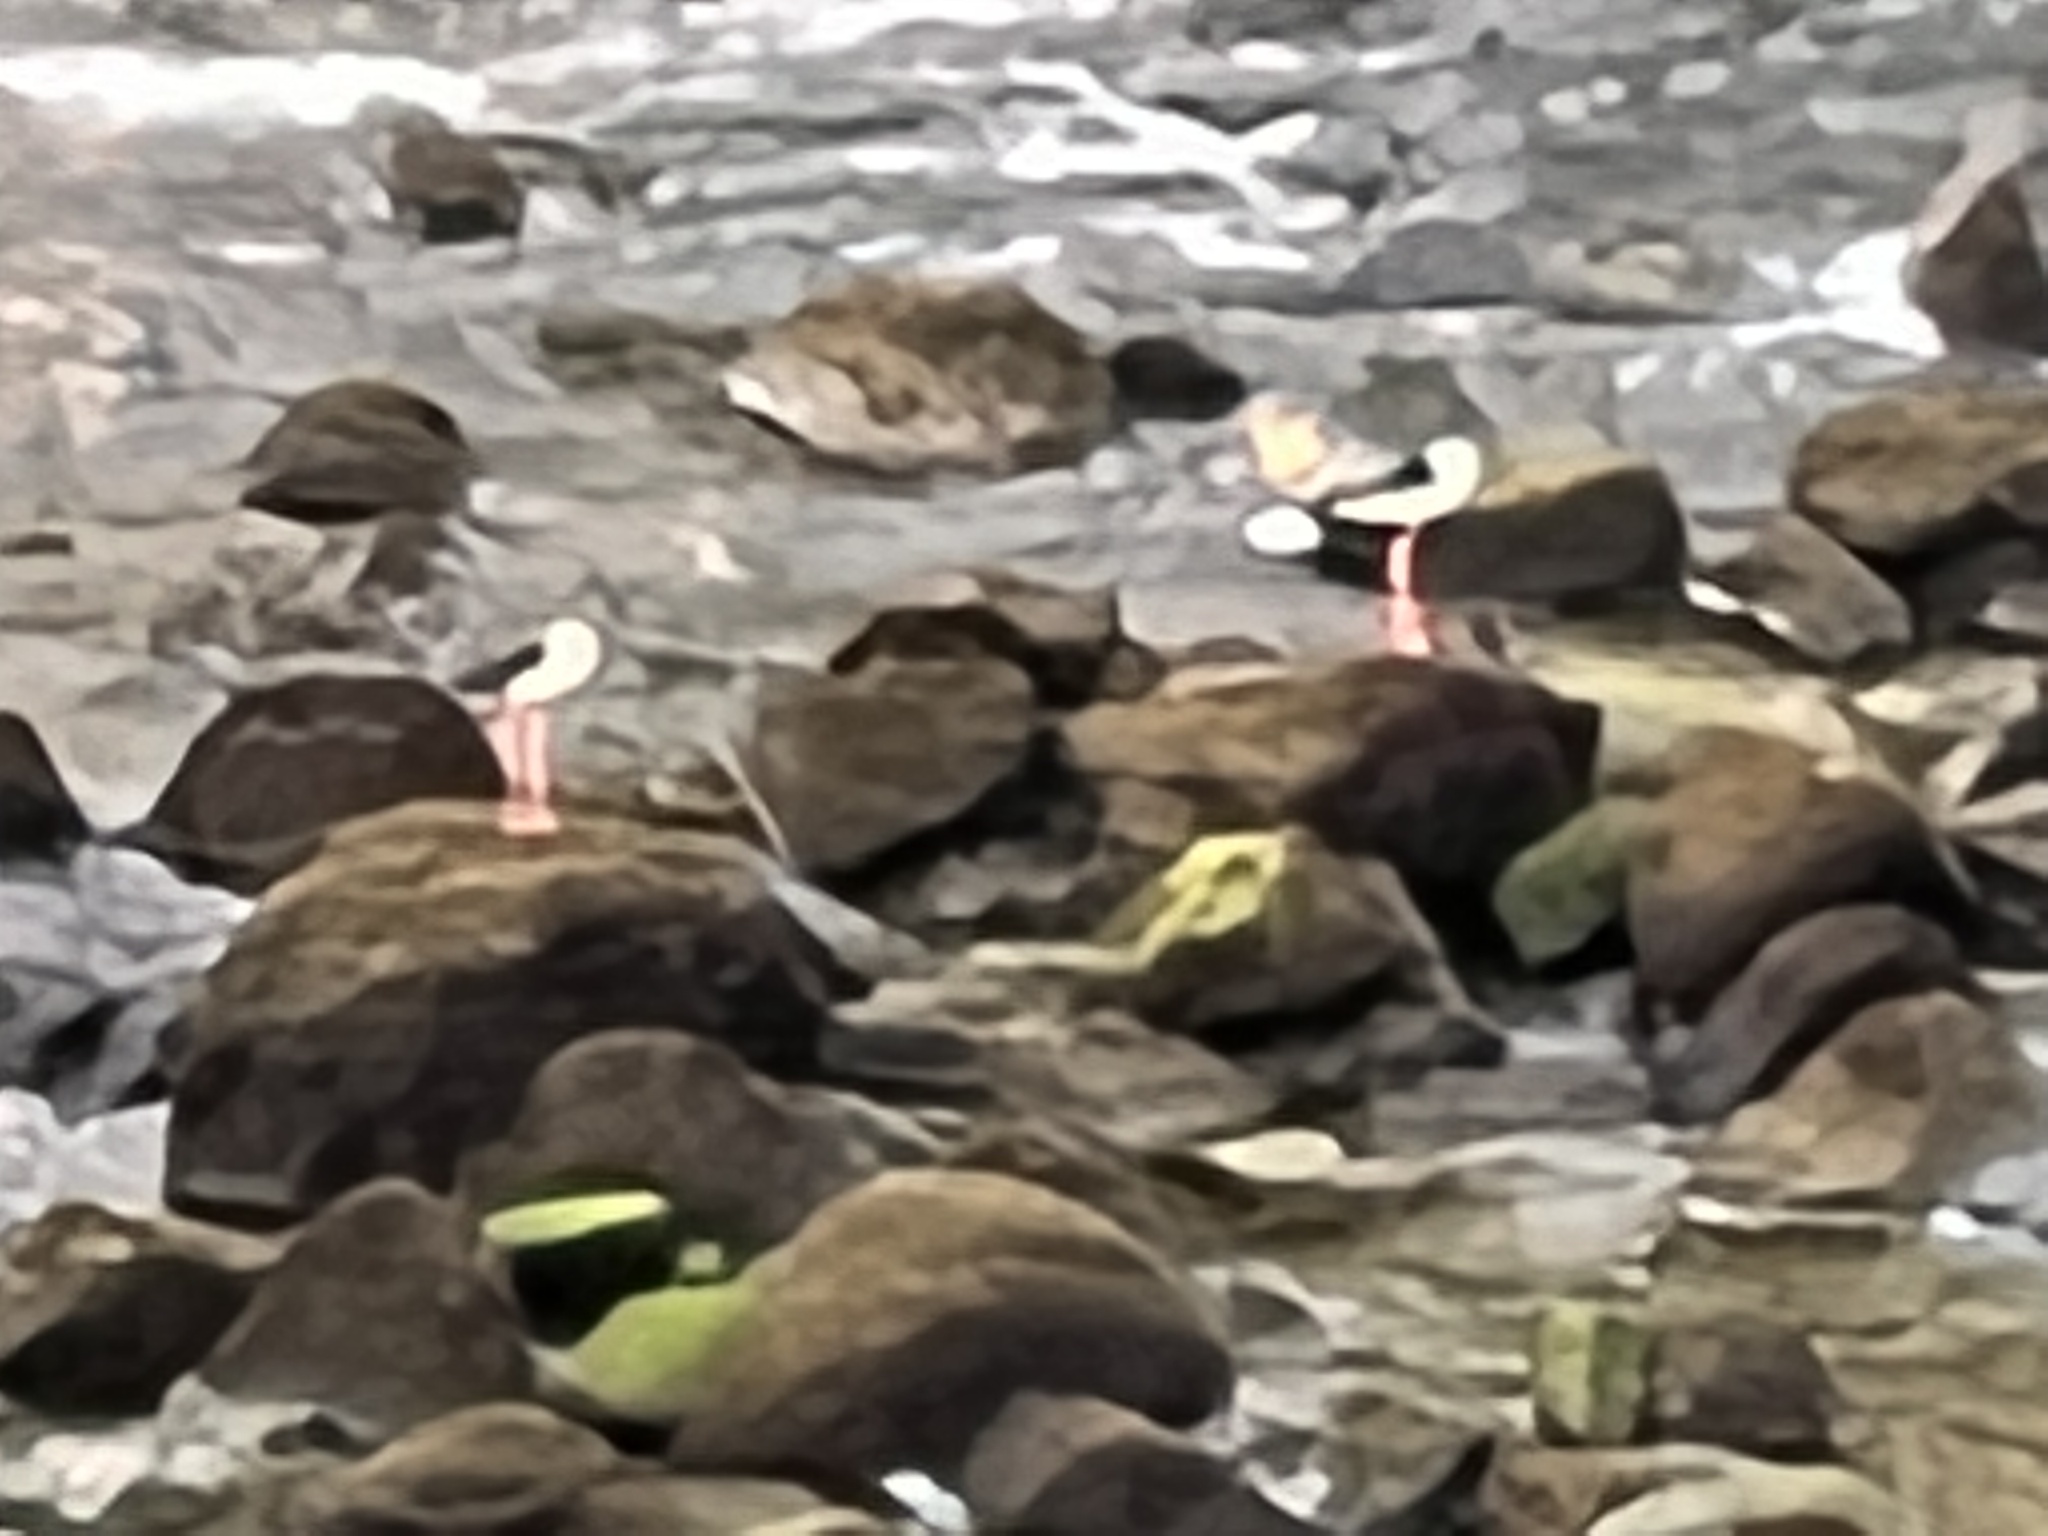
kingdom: Animalia
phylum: Chordata
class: Aves
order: Charadriiformes
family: Recurvirostridae
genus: Himantopus
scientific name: Himantopus himantopus
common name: Black-winged stilt
